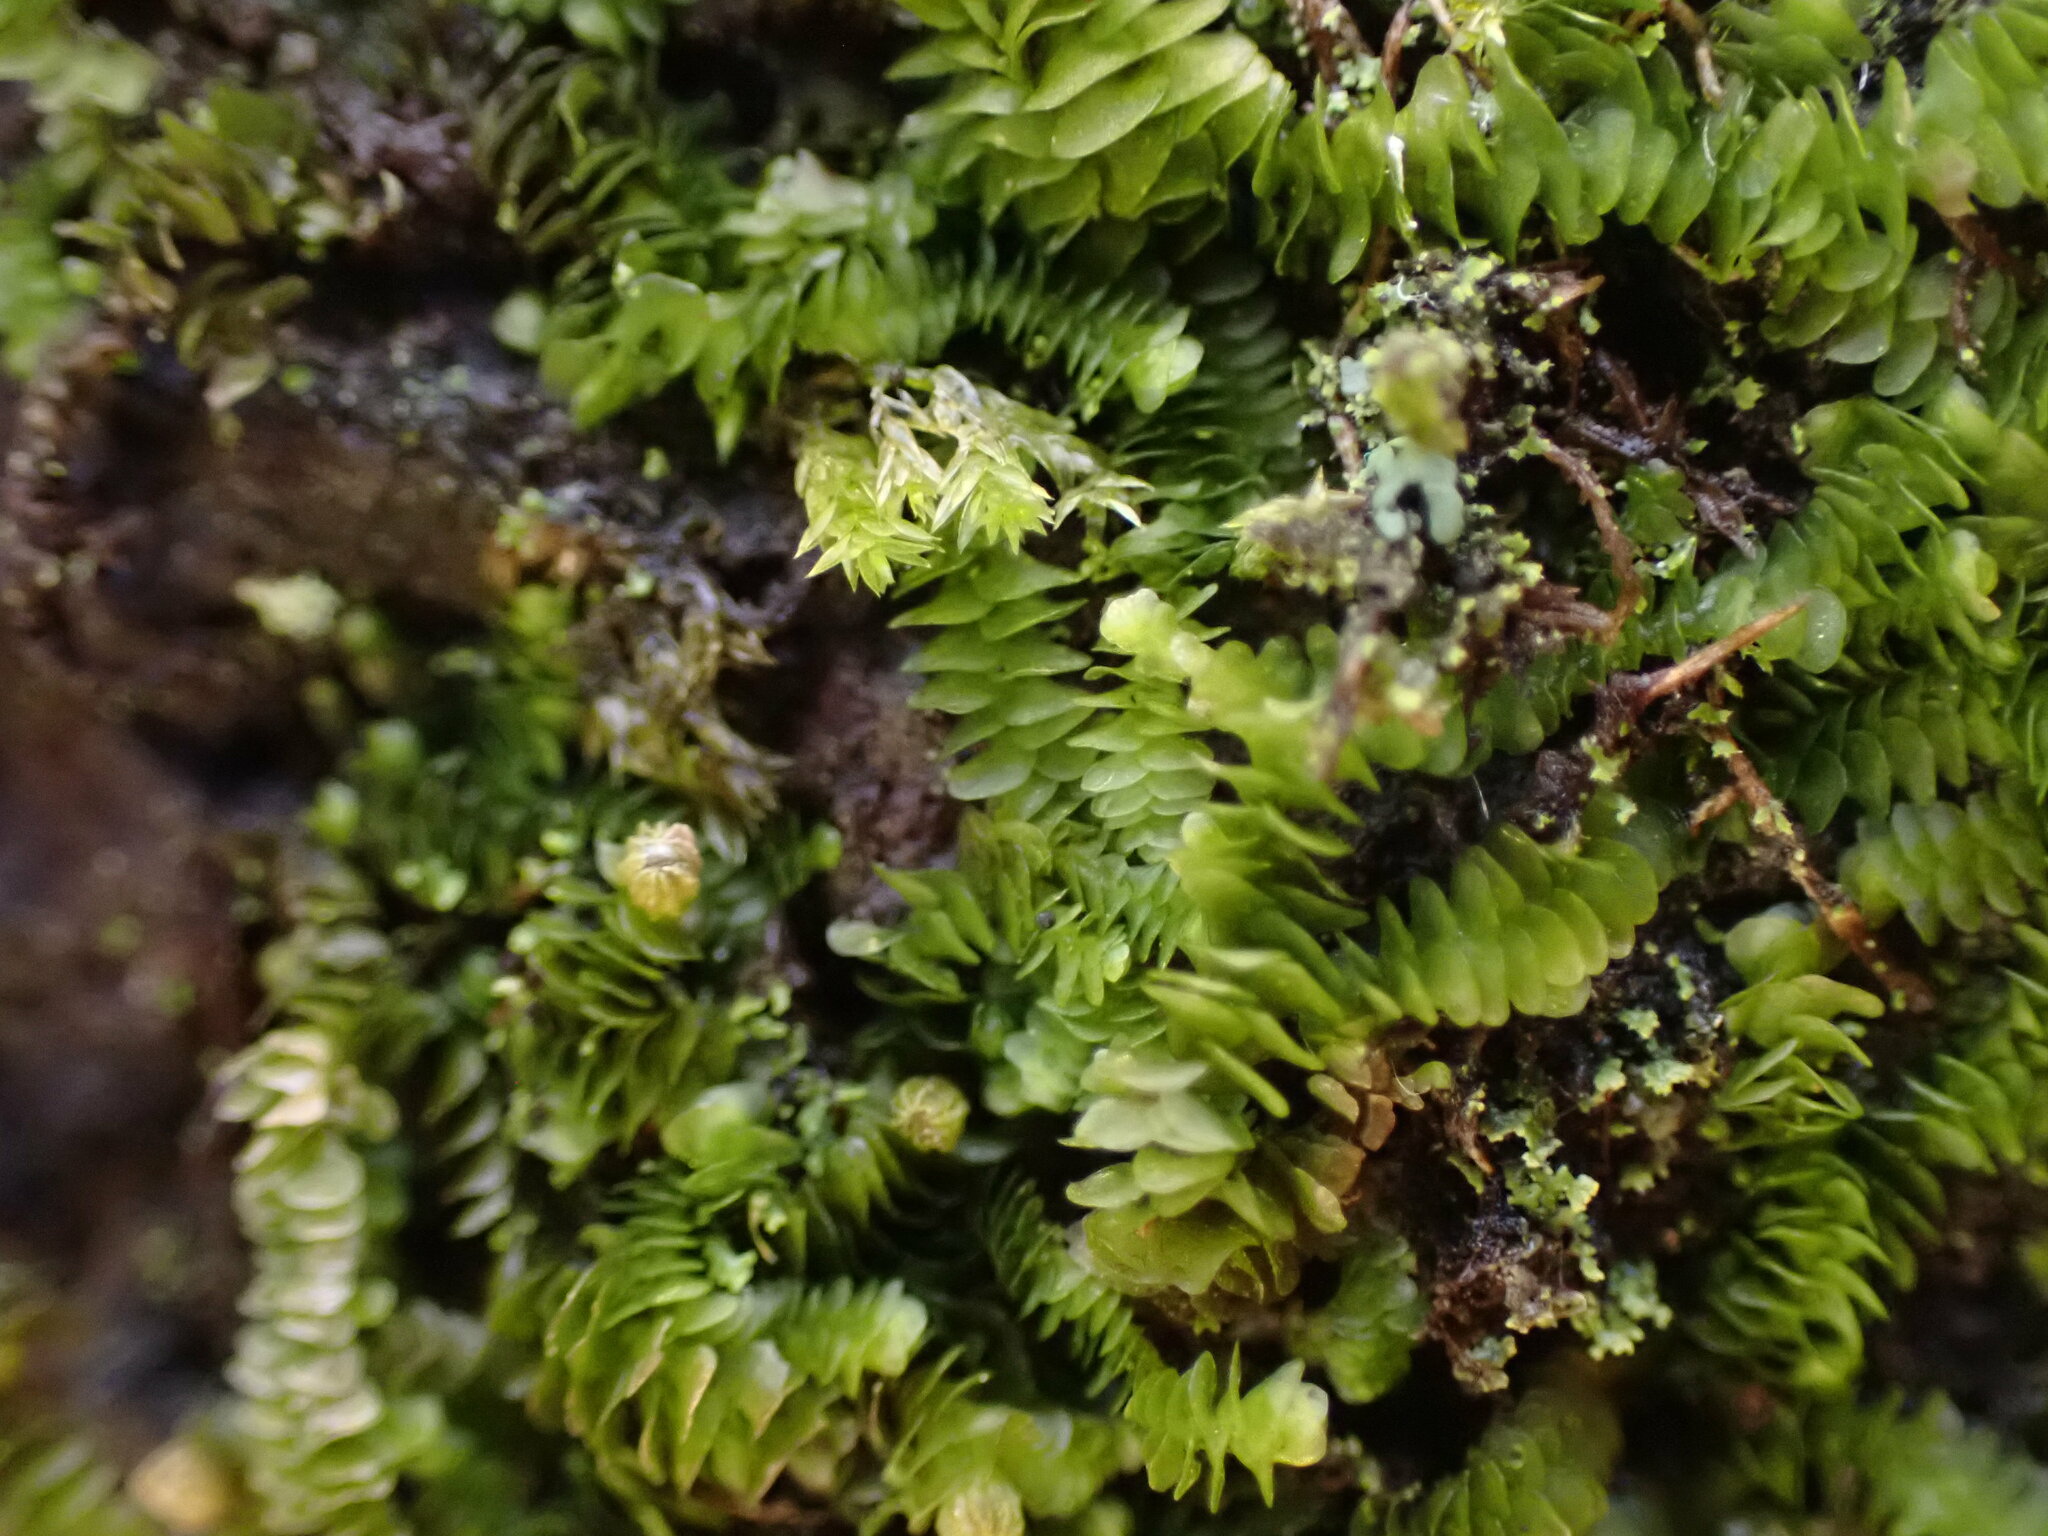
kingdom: Plantae
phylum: Marchantiophyta
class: Jungermanniopsida
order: Porellales
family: Lejeuneaceae
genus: Acrolejeunea
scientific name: Acrolejeunea sandvicensis
